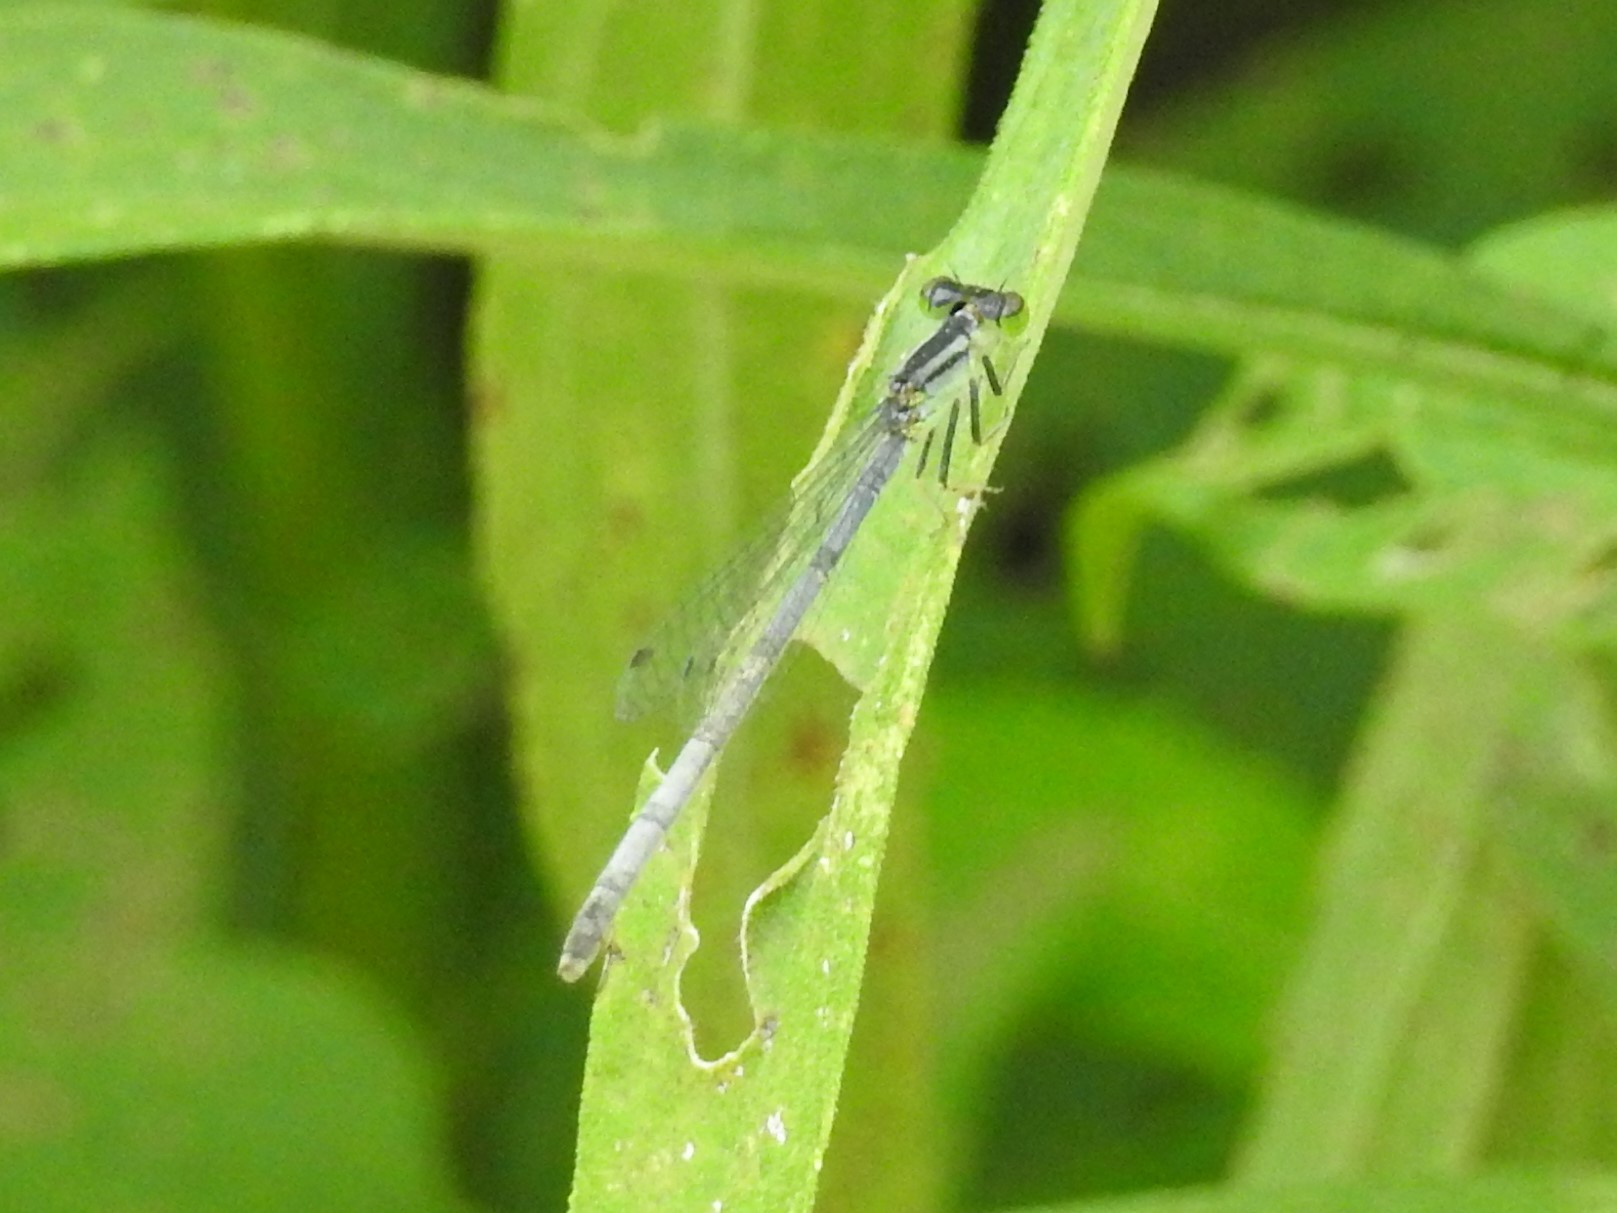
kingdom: Animalia
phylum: Arthropoda
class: Insecta
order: Odonata
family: Coenagrionidae
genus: Ischnura
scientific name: Ischnura verticalis
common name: Eastern forktail
